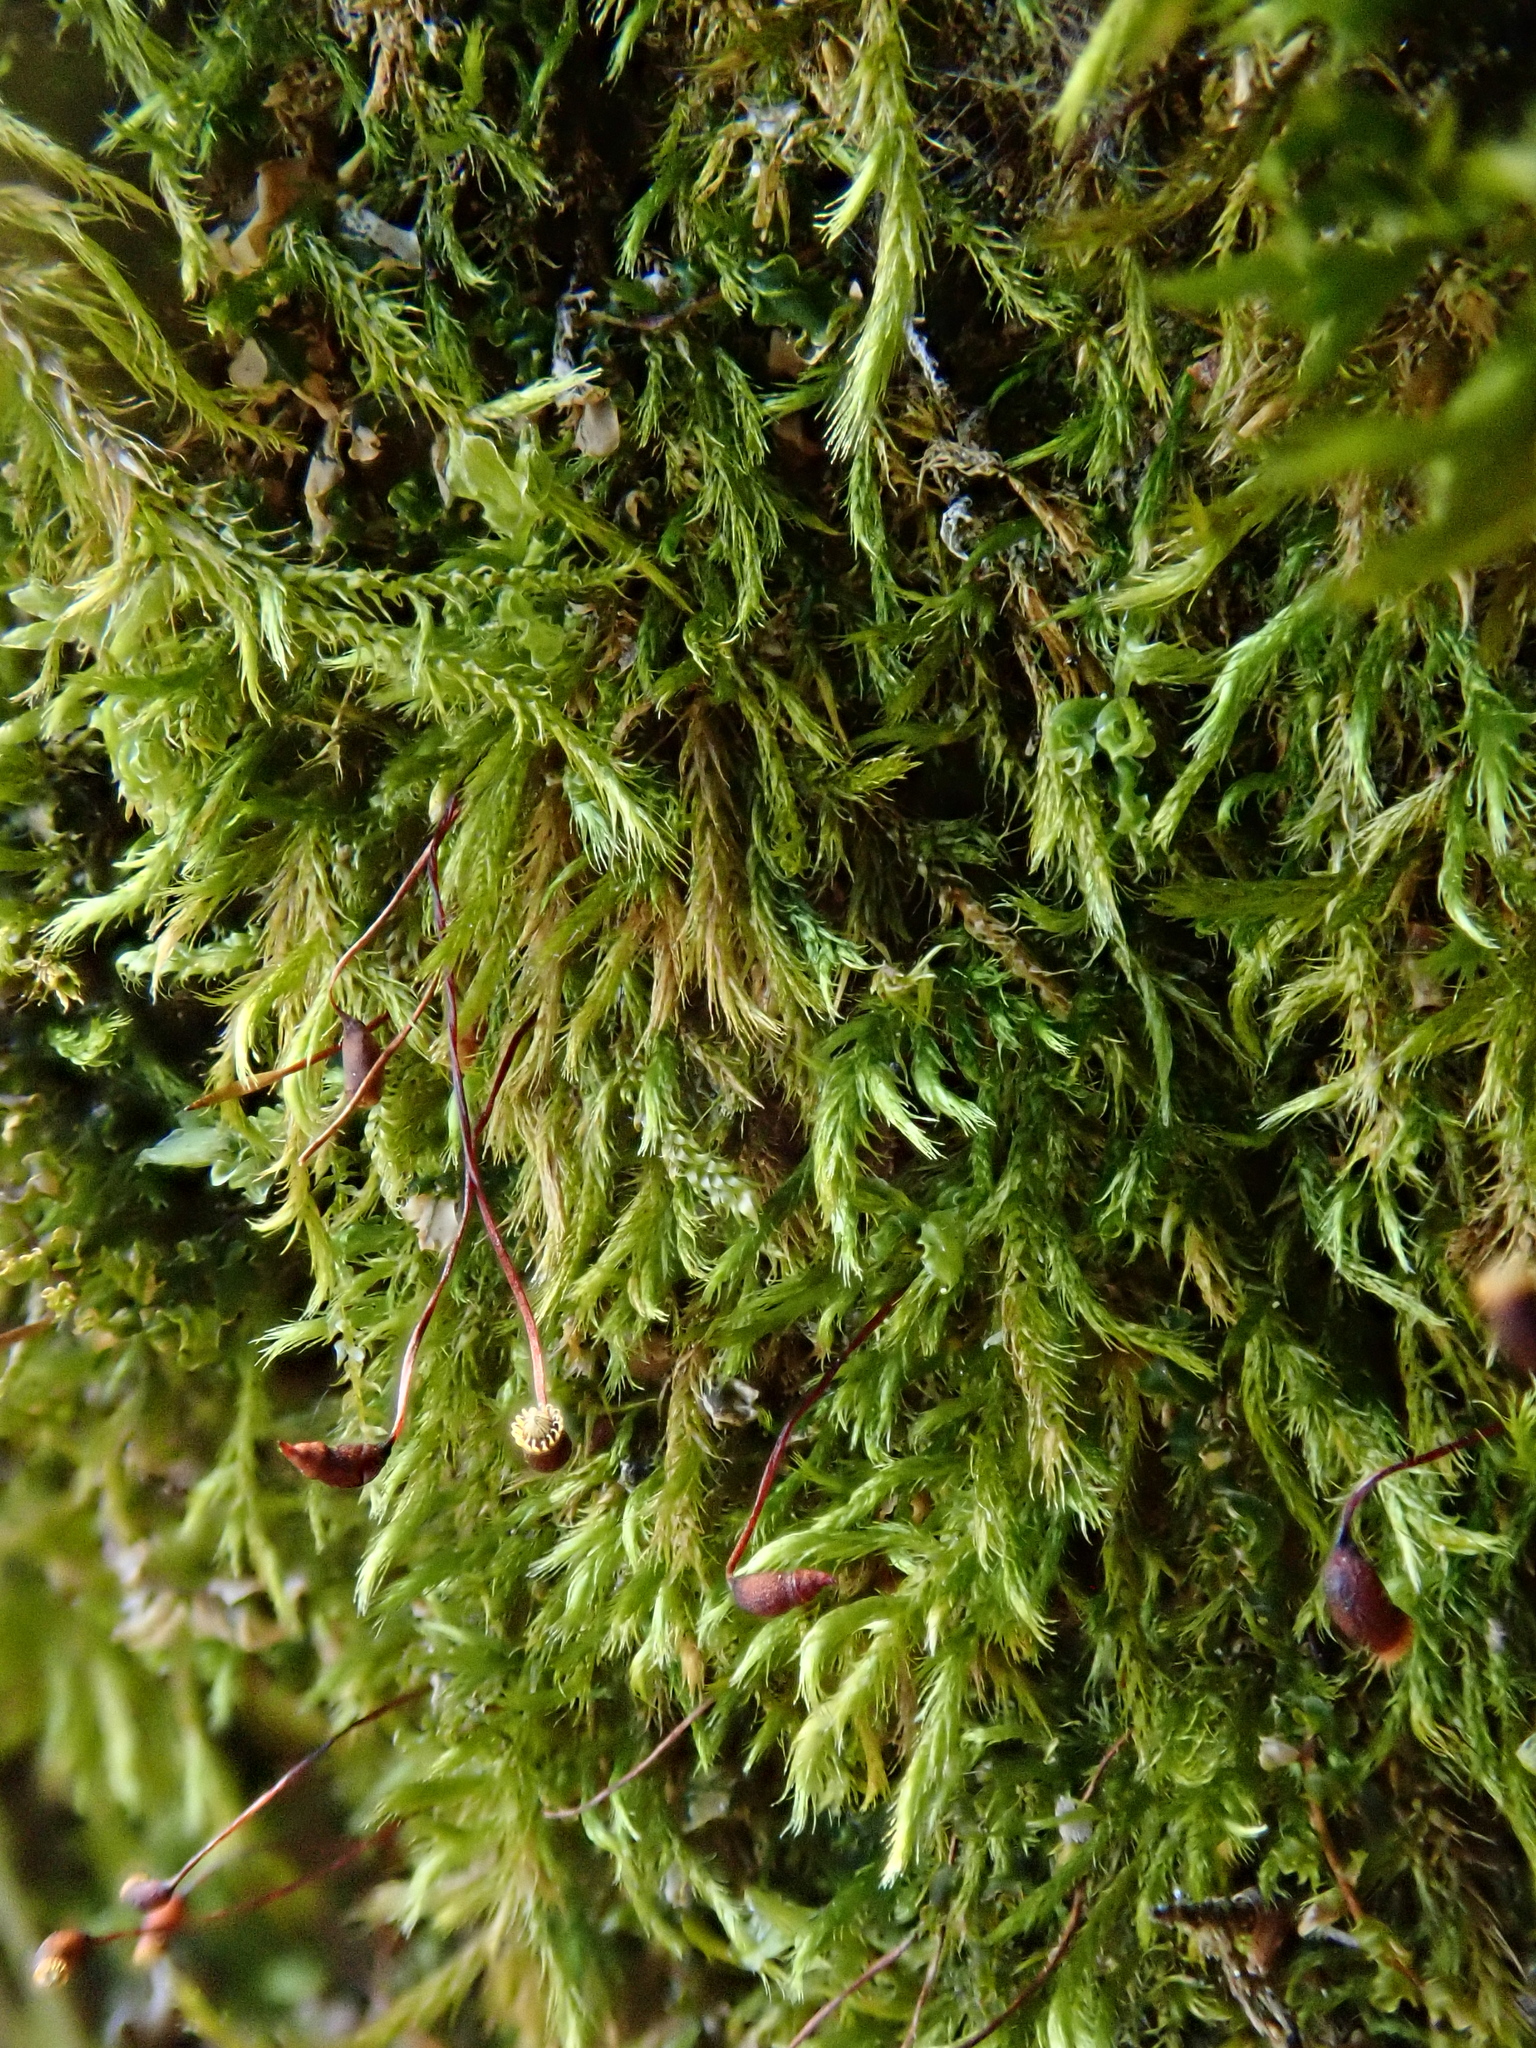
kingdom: Plantae
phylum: Bryophyta
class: Bryopsida
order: Hypnales
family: Brachytheciaceae
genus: Sciuro-hypnum
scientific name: Sciuro-hypnum populeum
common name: Matted feather-moss
